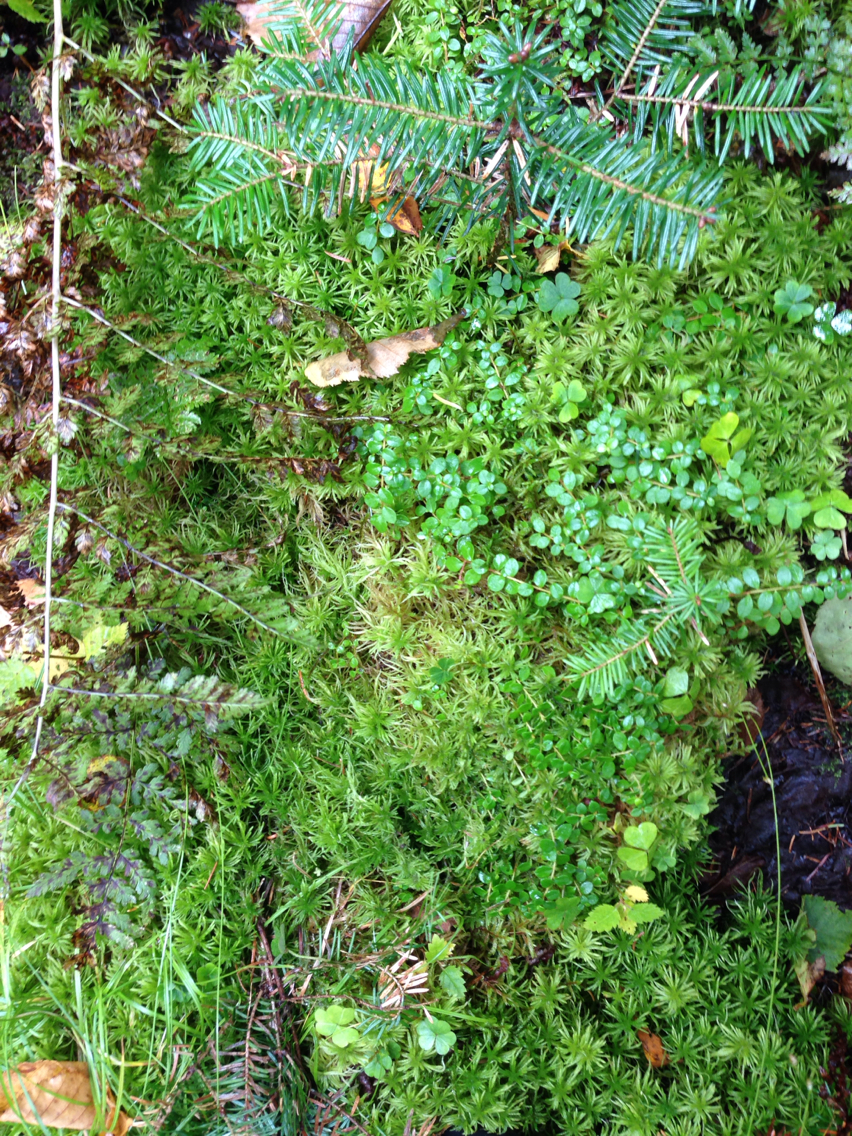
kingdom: Plantae
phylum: Tracheophyta
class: Magnoliopsida
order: Ericales
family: Ericaceae
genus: Gaultheria
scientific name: Gaultheria hispidula
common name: Cancer wintergreen
